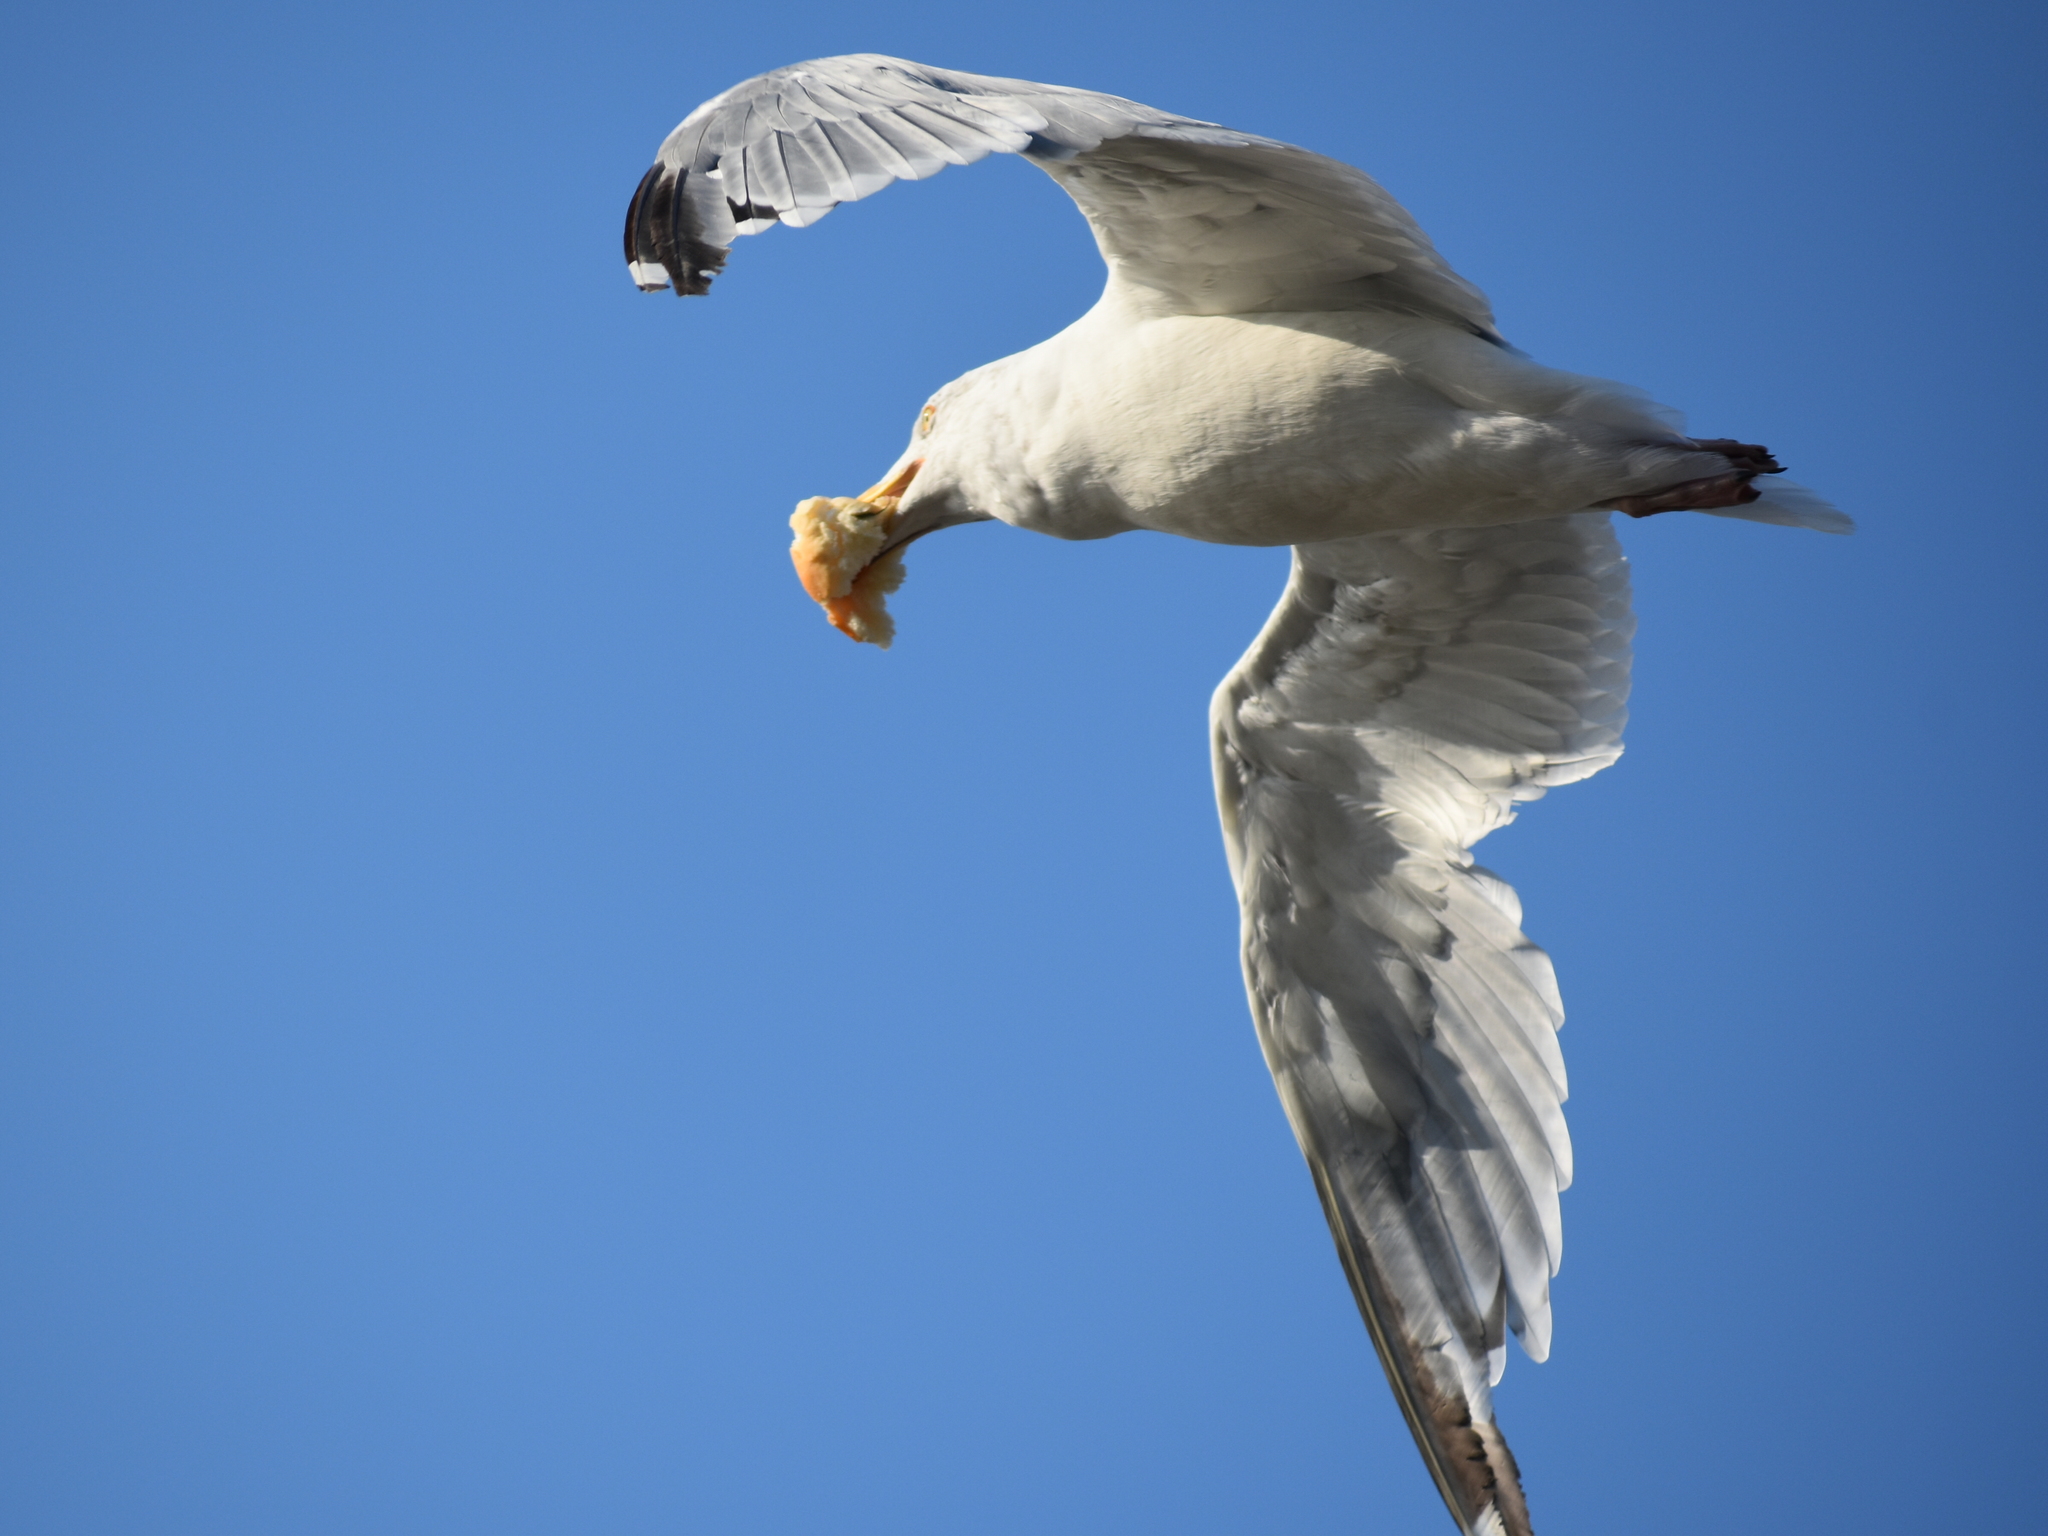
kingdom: Animalia
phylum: Chordata
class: Aves
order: Charadriiformes
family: Laridae
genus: Larus
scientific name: Larus argentatus
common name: Herring gull
